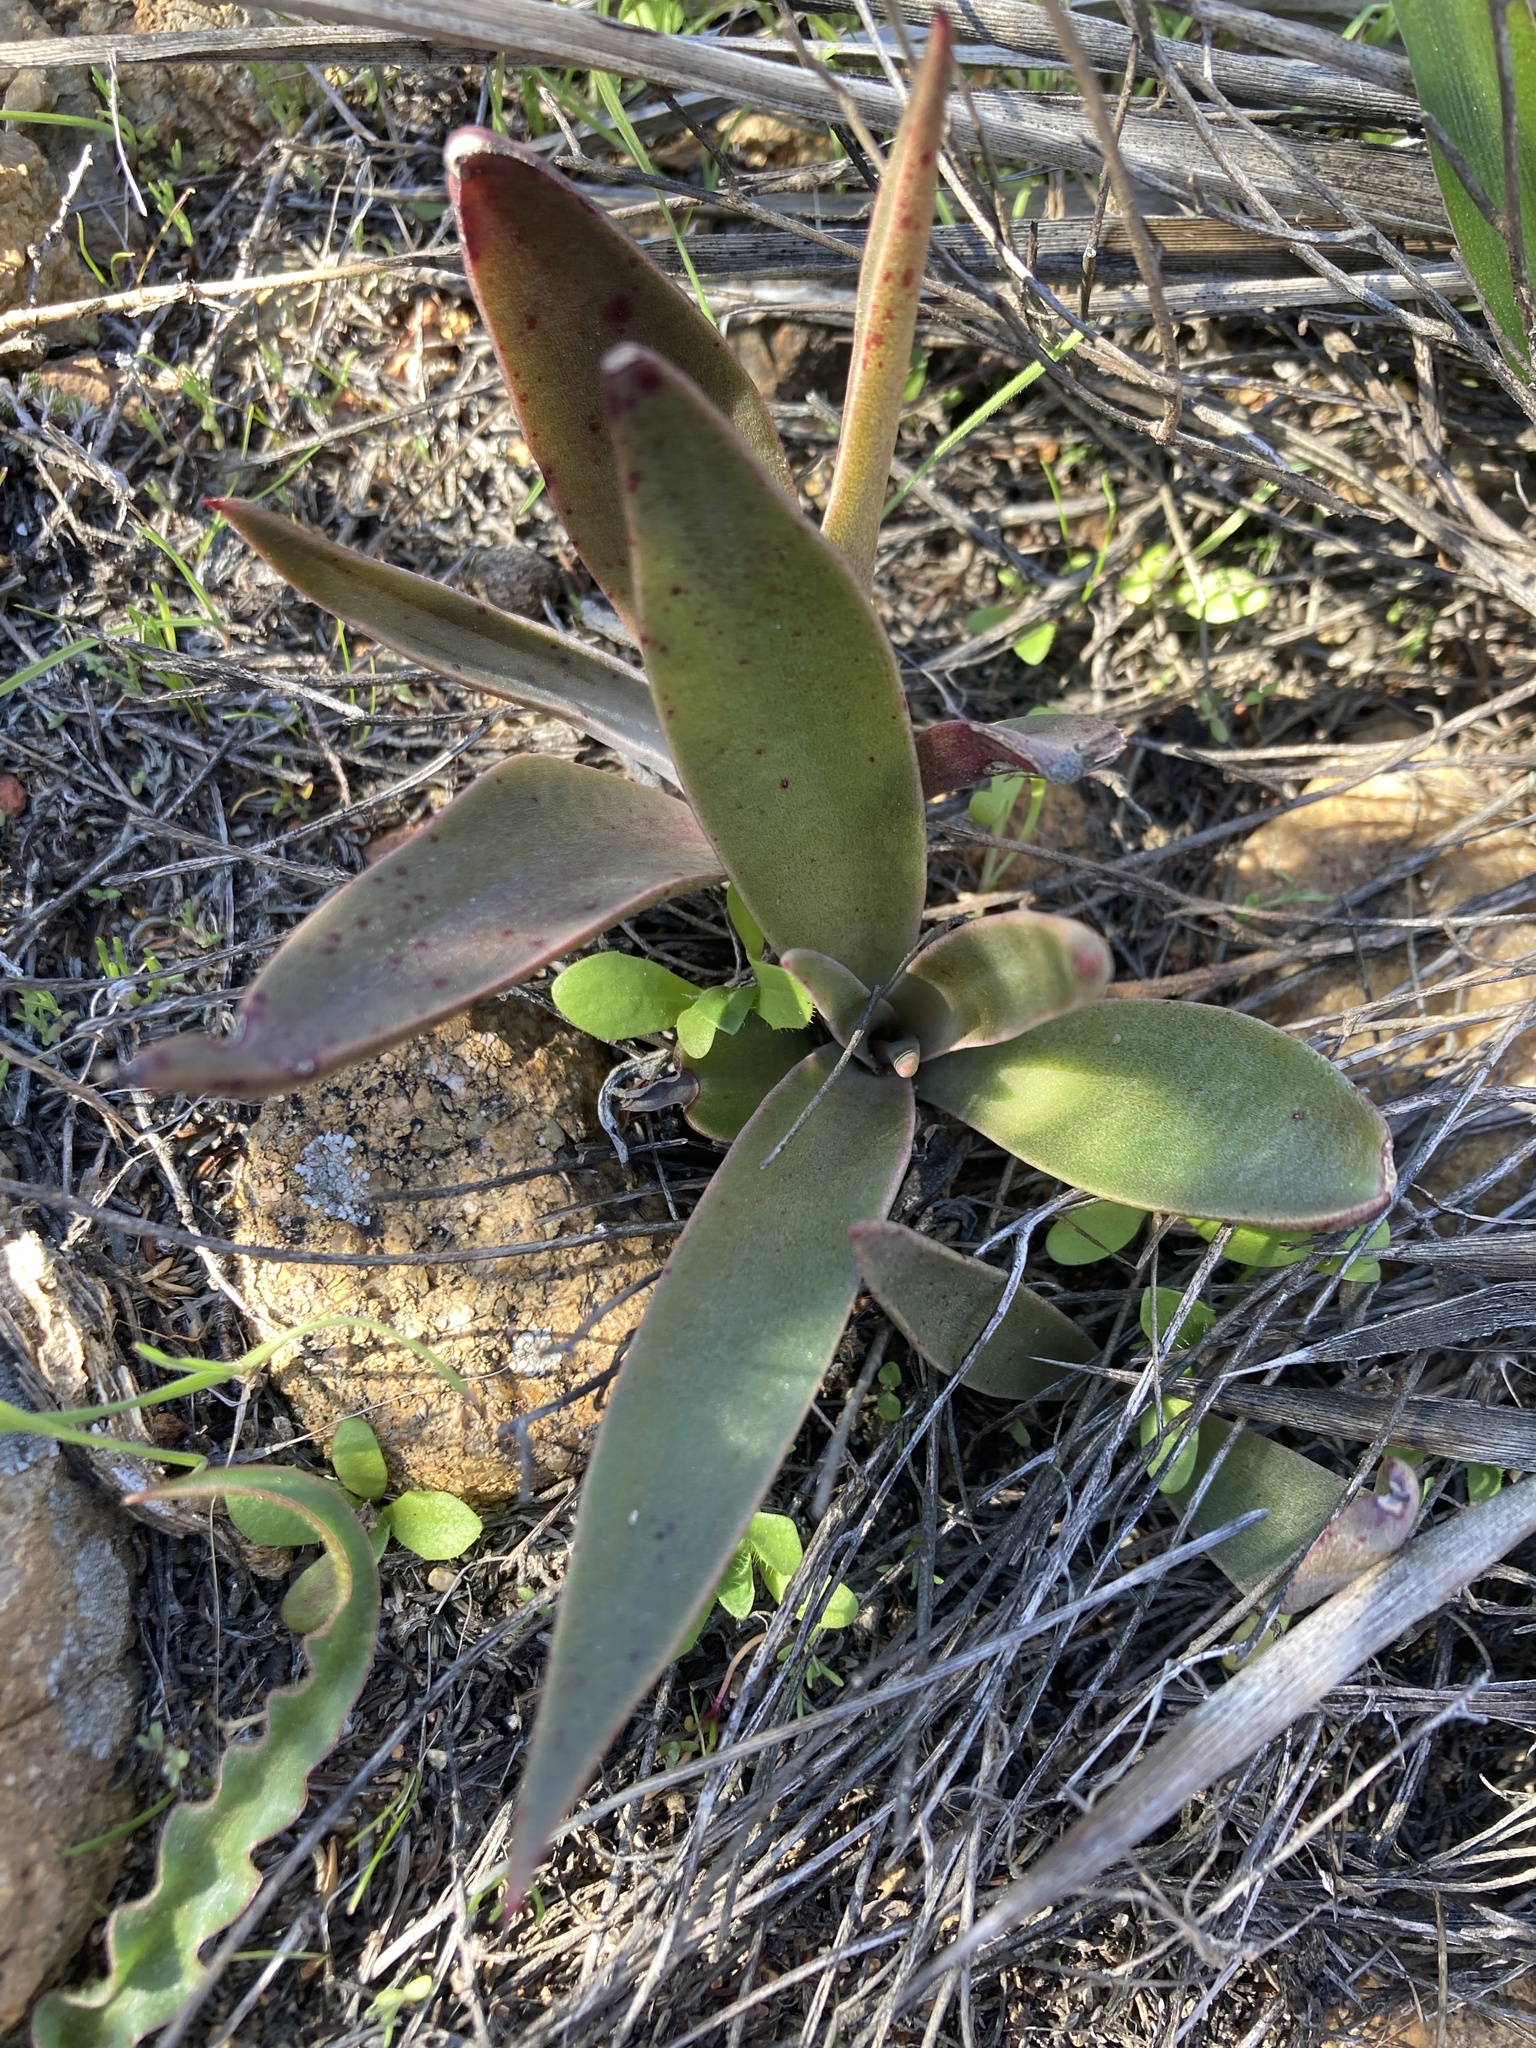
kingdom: Plantae
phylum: Tracheophyta
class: Magnoliopsida
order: Saxifragales
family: Crassulaceae
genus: Dudleya
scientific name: Dudleya lanceolata
